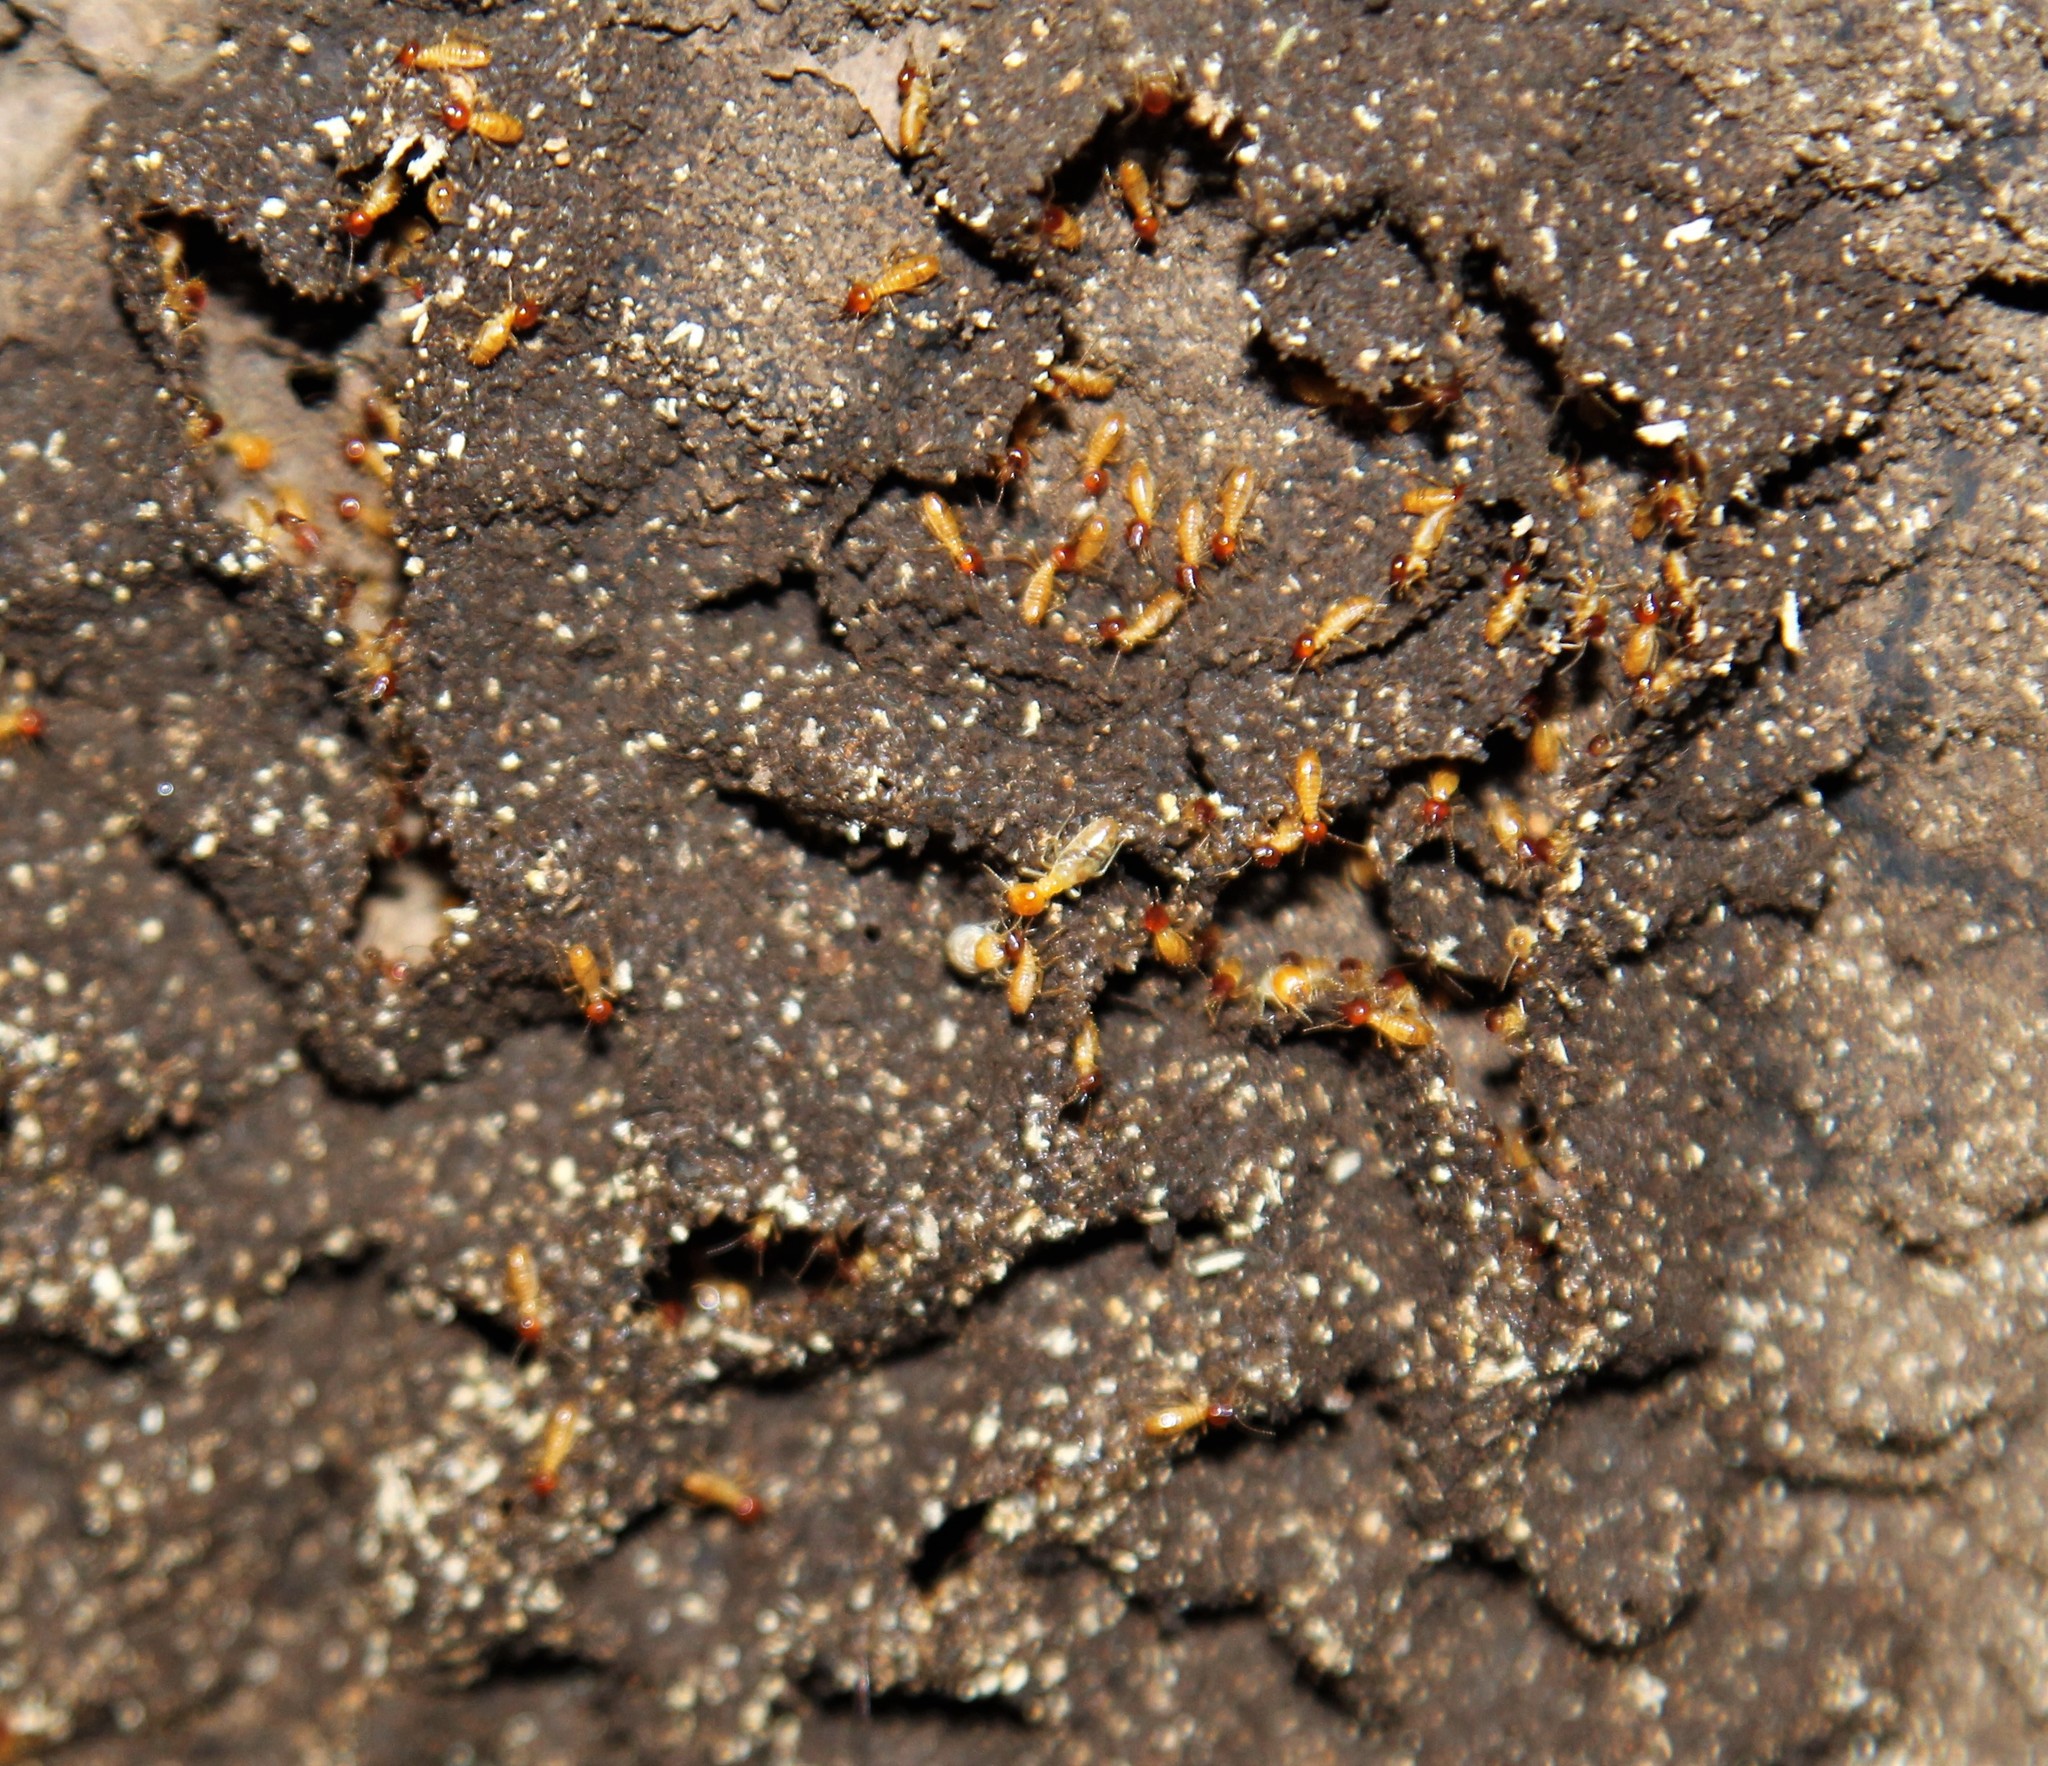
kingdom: Animalia
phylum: Arthropoda
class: Insecta
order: Blattodea
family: Termitidae
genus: Nasutitermes
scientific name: Nasutitermes rippertii
